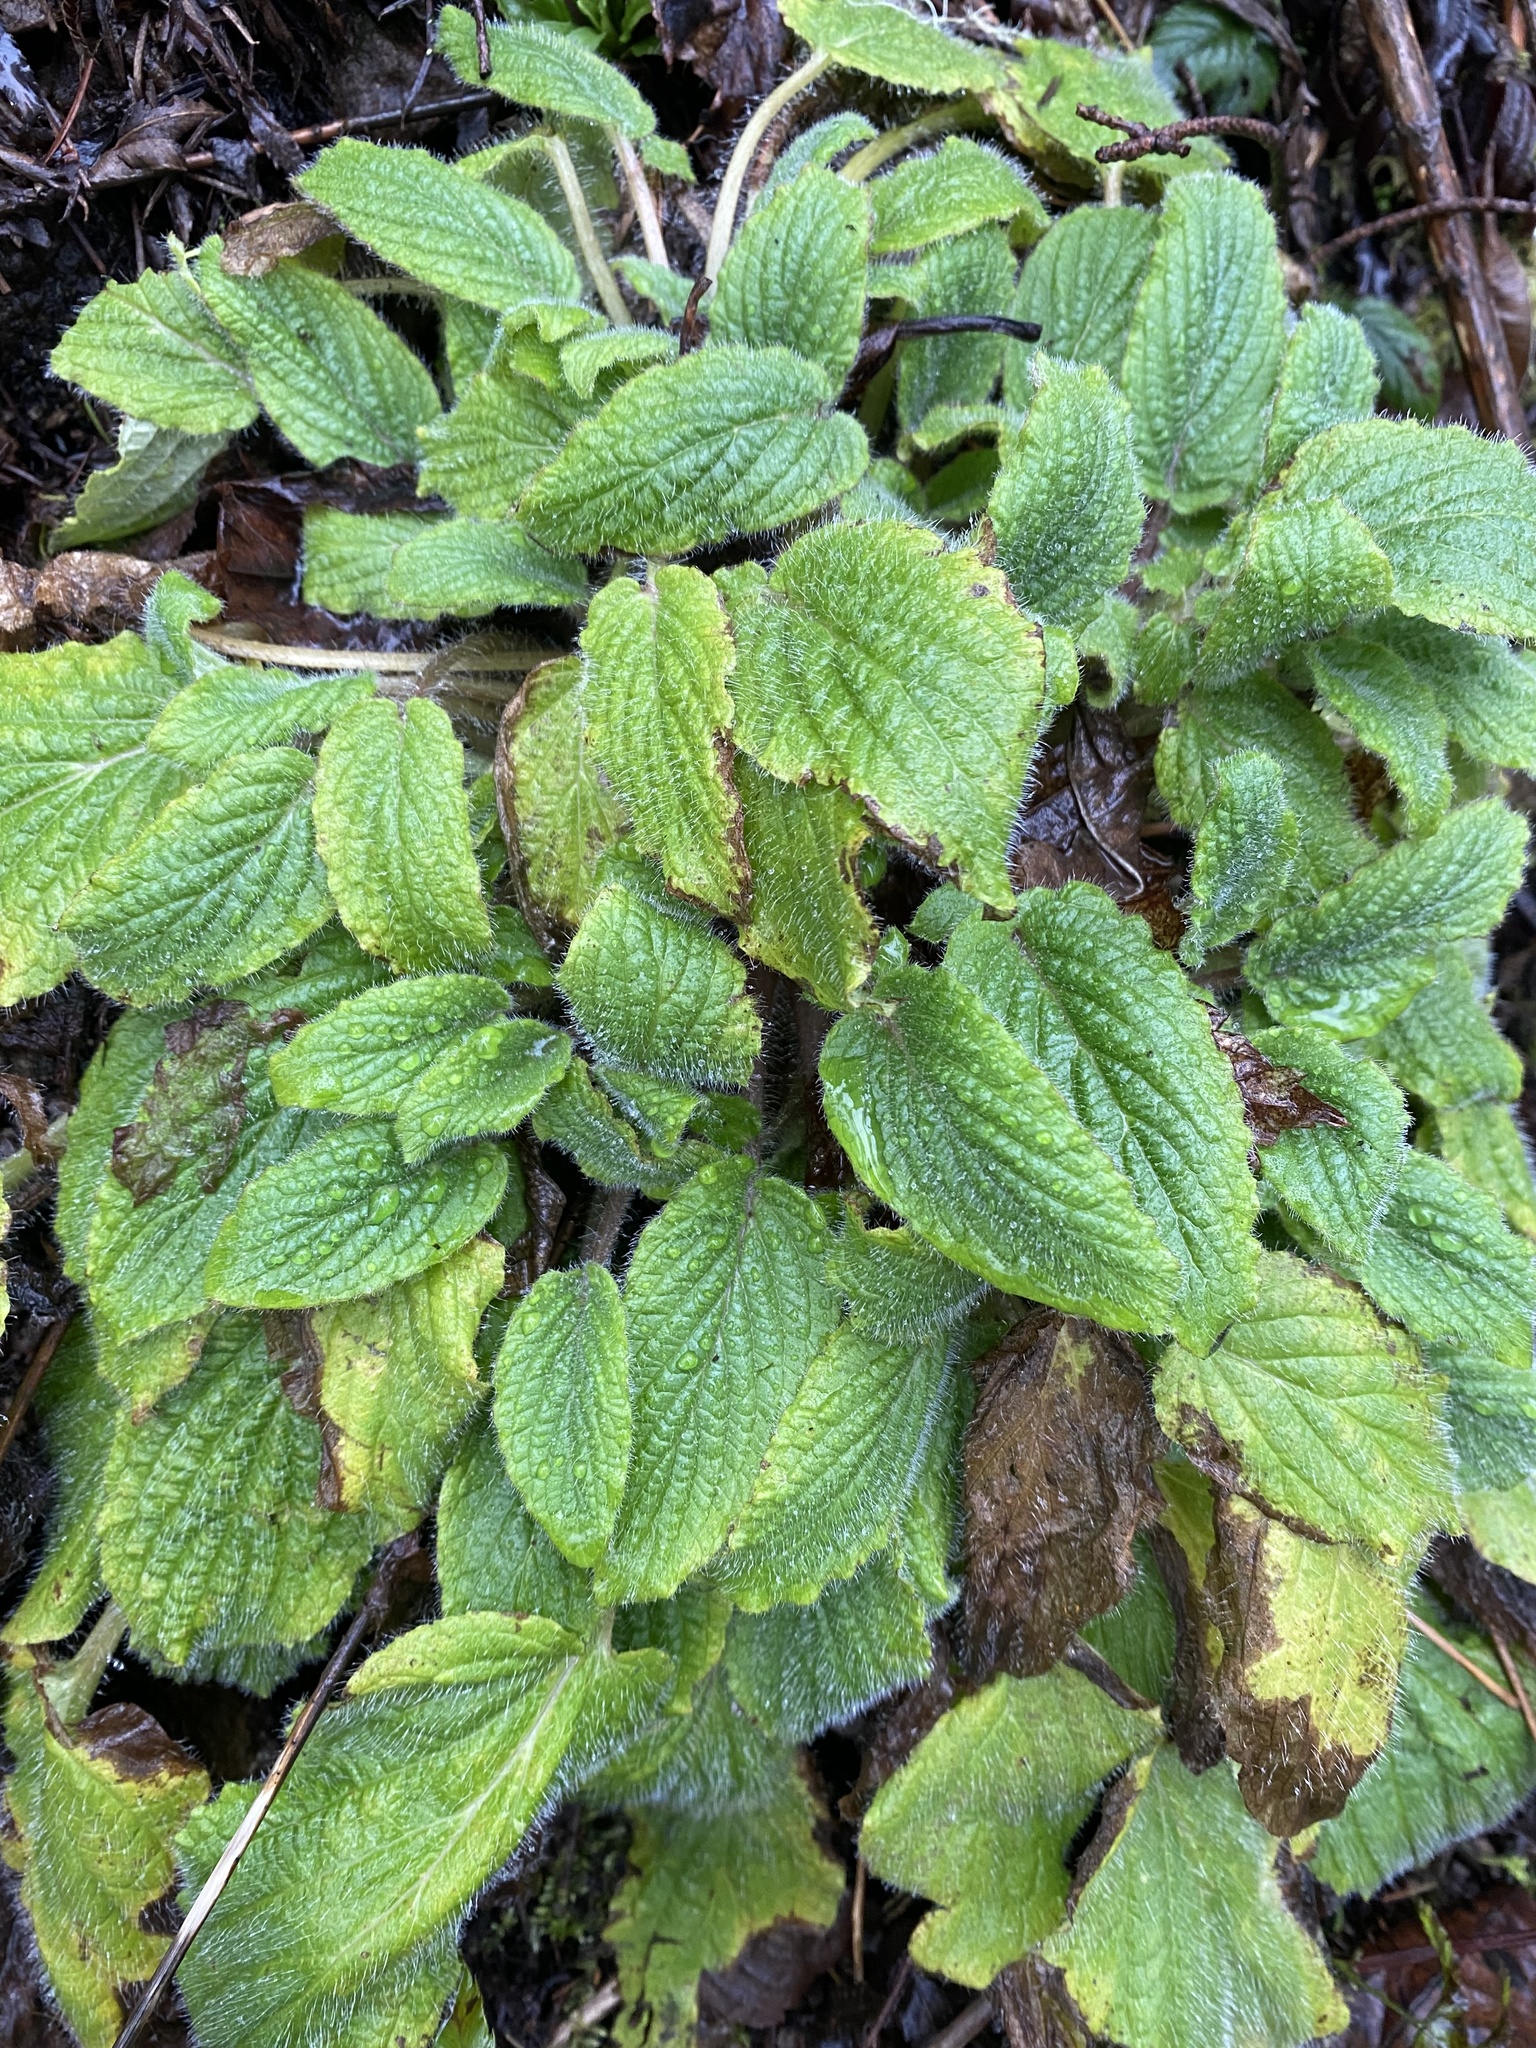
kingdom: Plantae
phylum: Tracheophyta
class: Magnoliopsida
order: Boraginales
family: Hydrophyllaceae
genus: Phacelia
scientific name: Phacelia nemoralis
